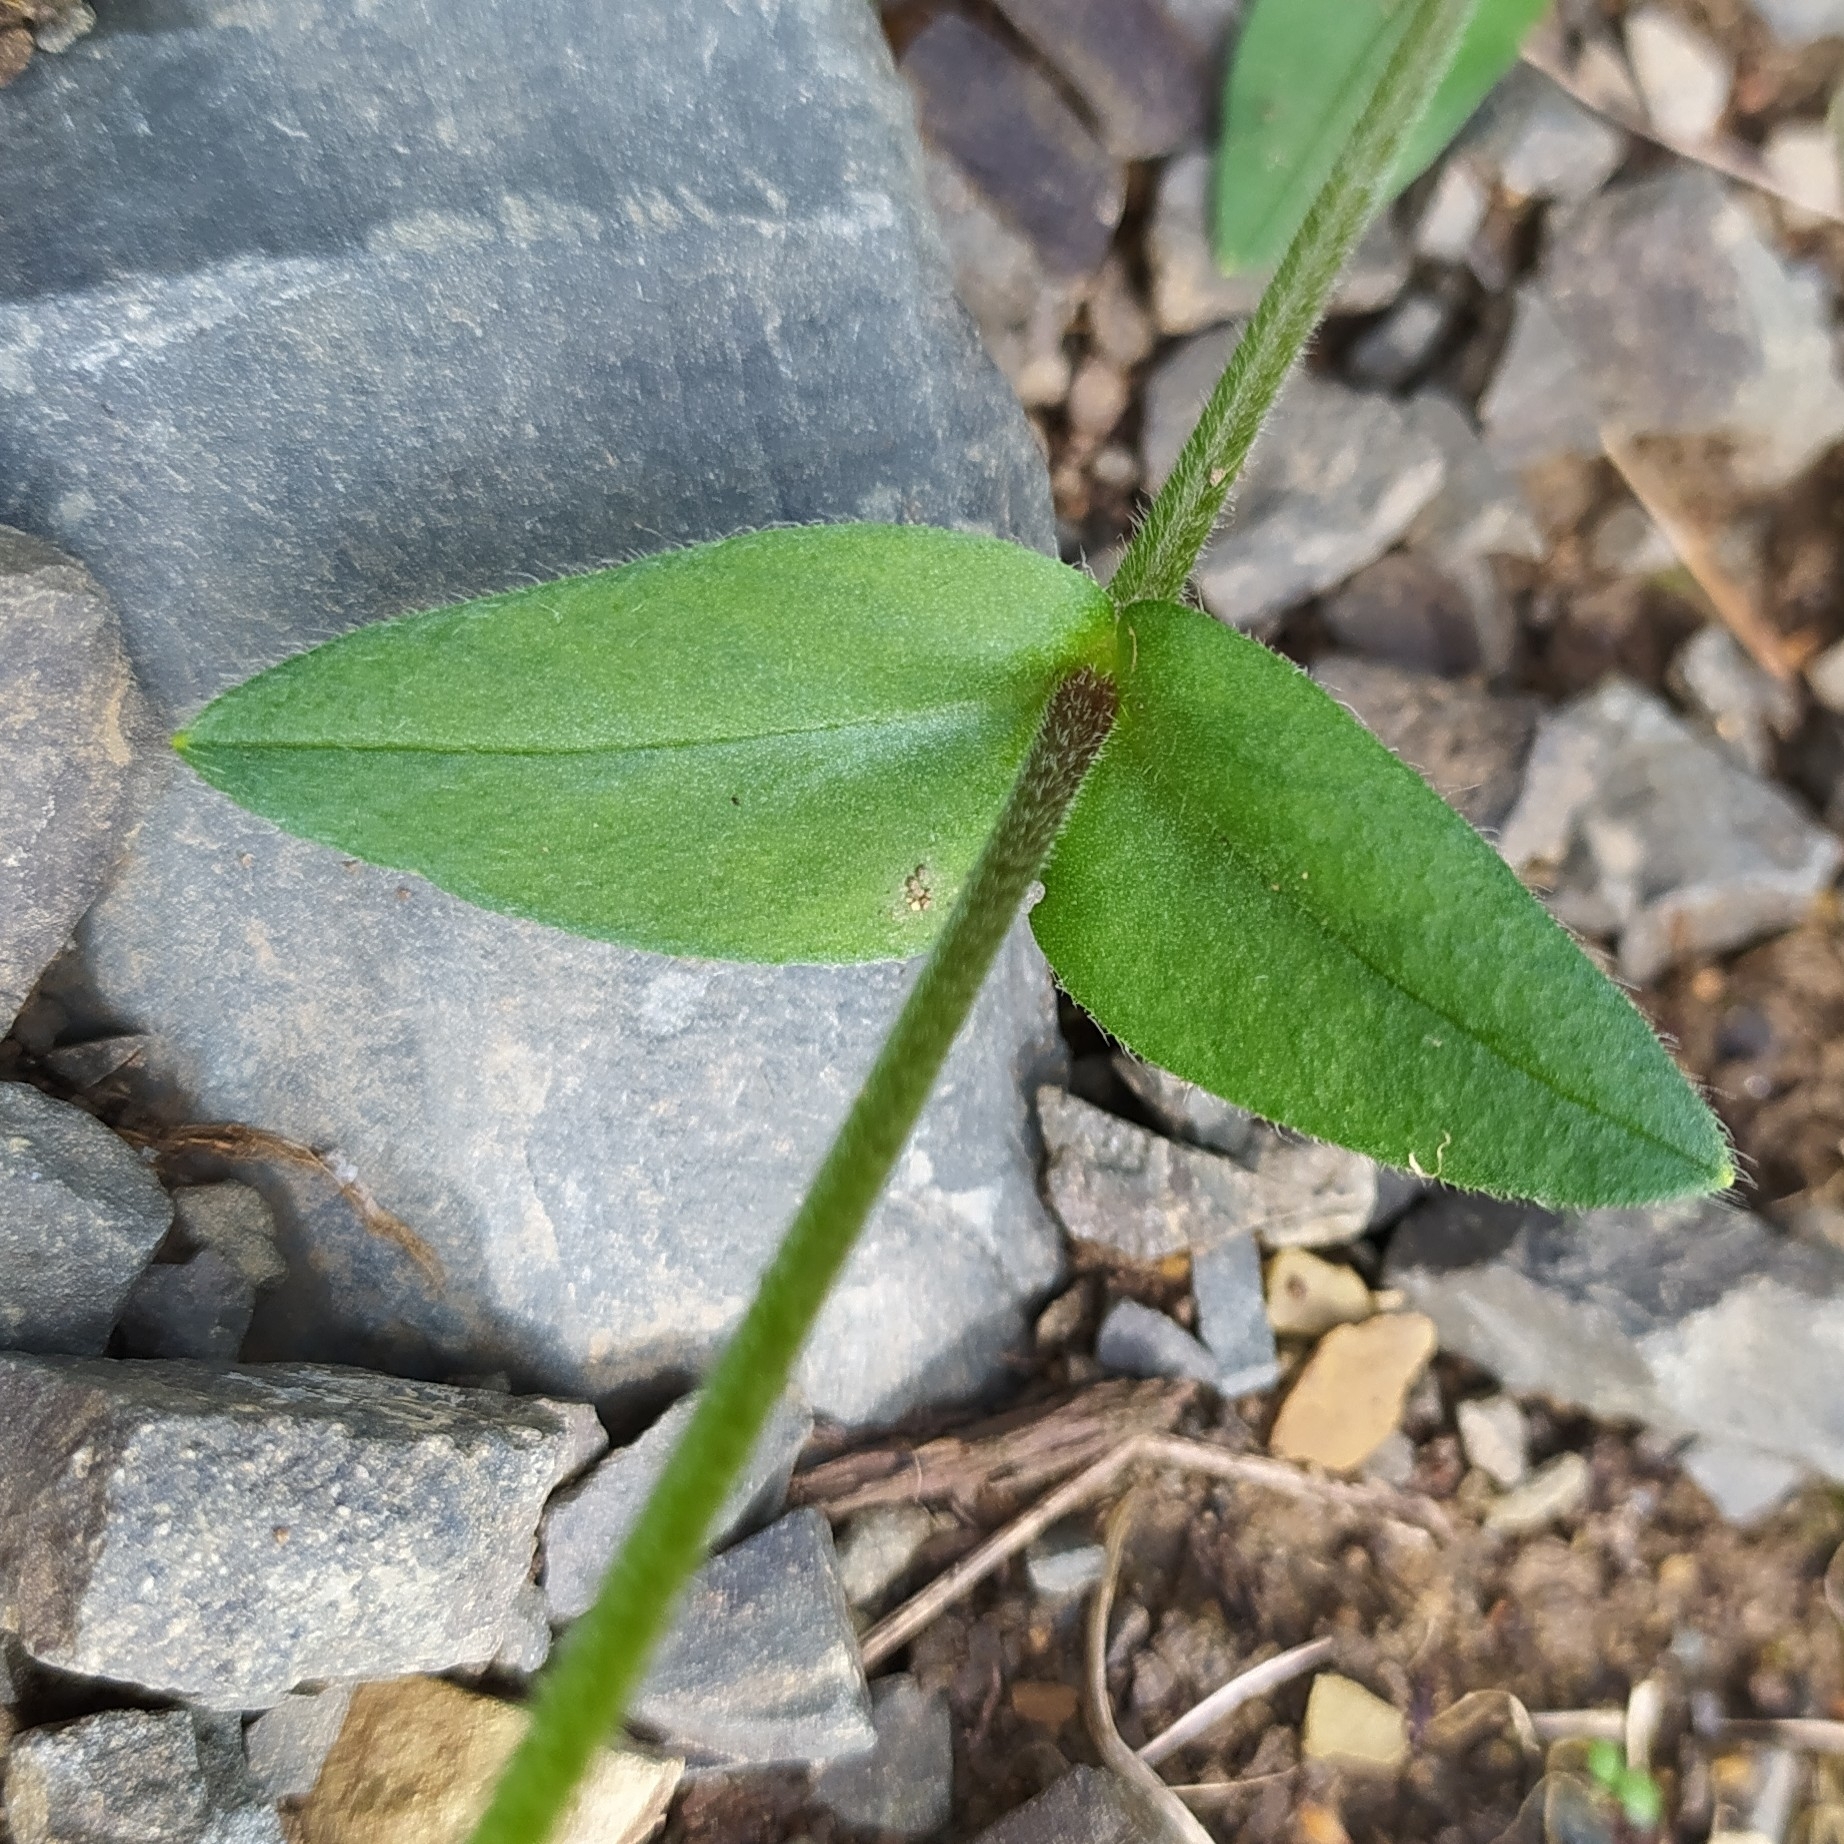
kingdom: Plantae
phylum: Tracheophyta
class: Magnoliopsida
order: Caryophyllales
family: Caryophyllaceae
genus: Cerastium
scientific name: Cerastium holosteoides
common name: Big chickweed
